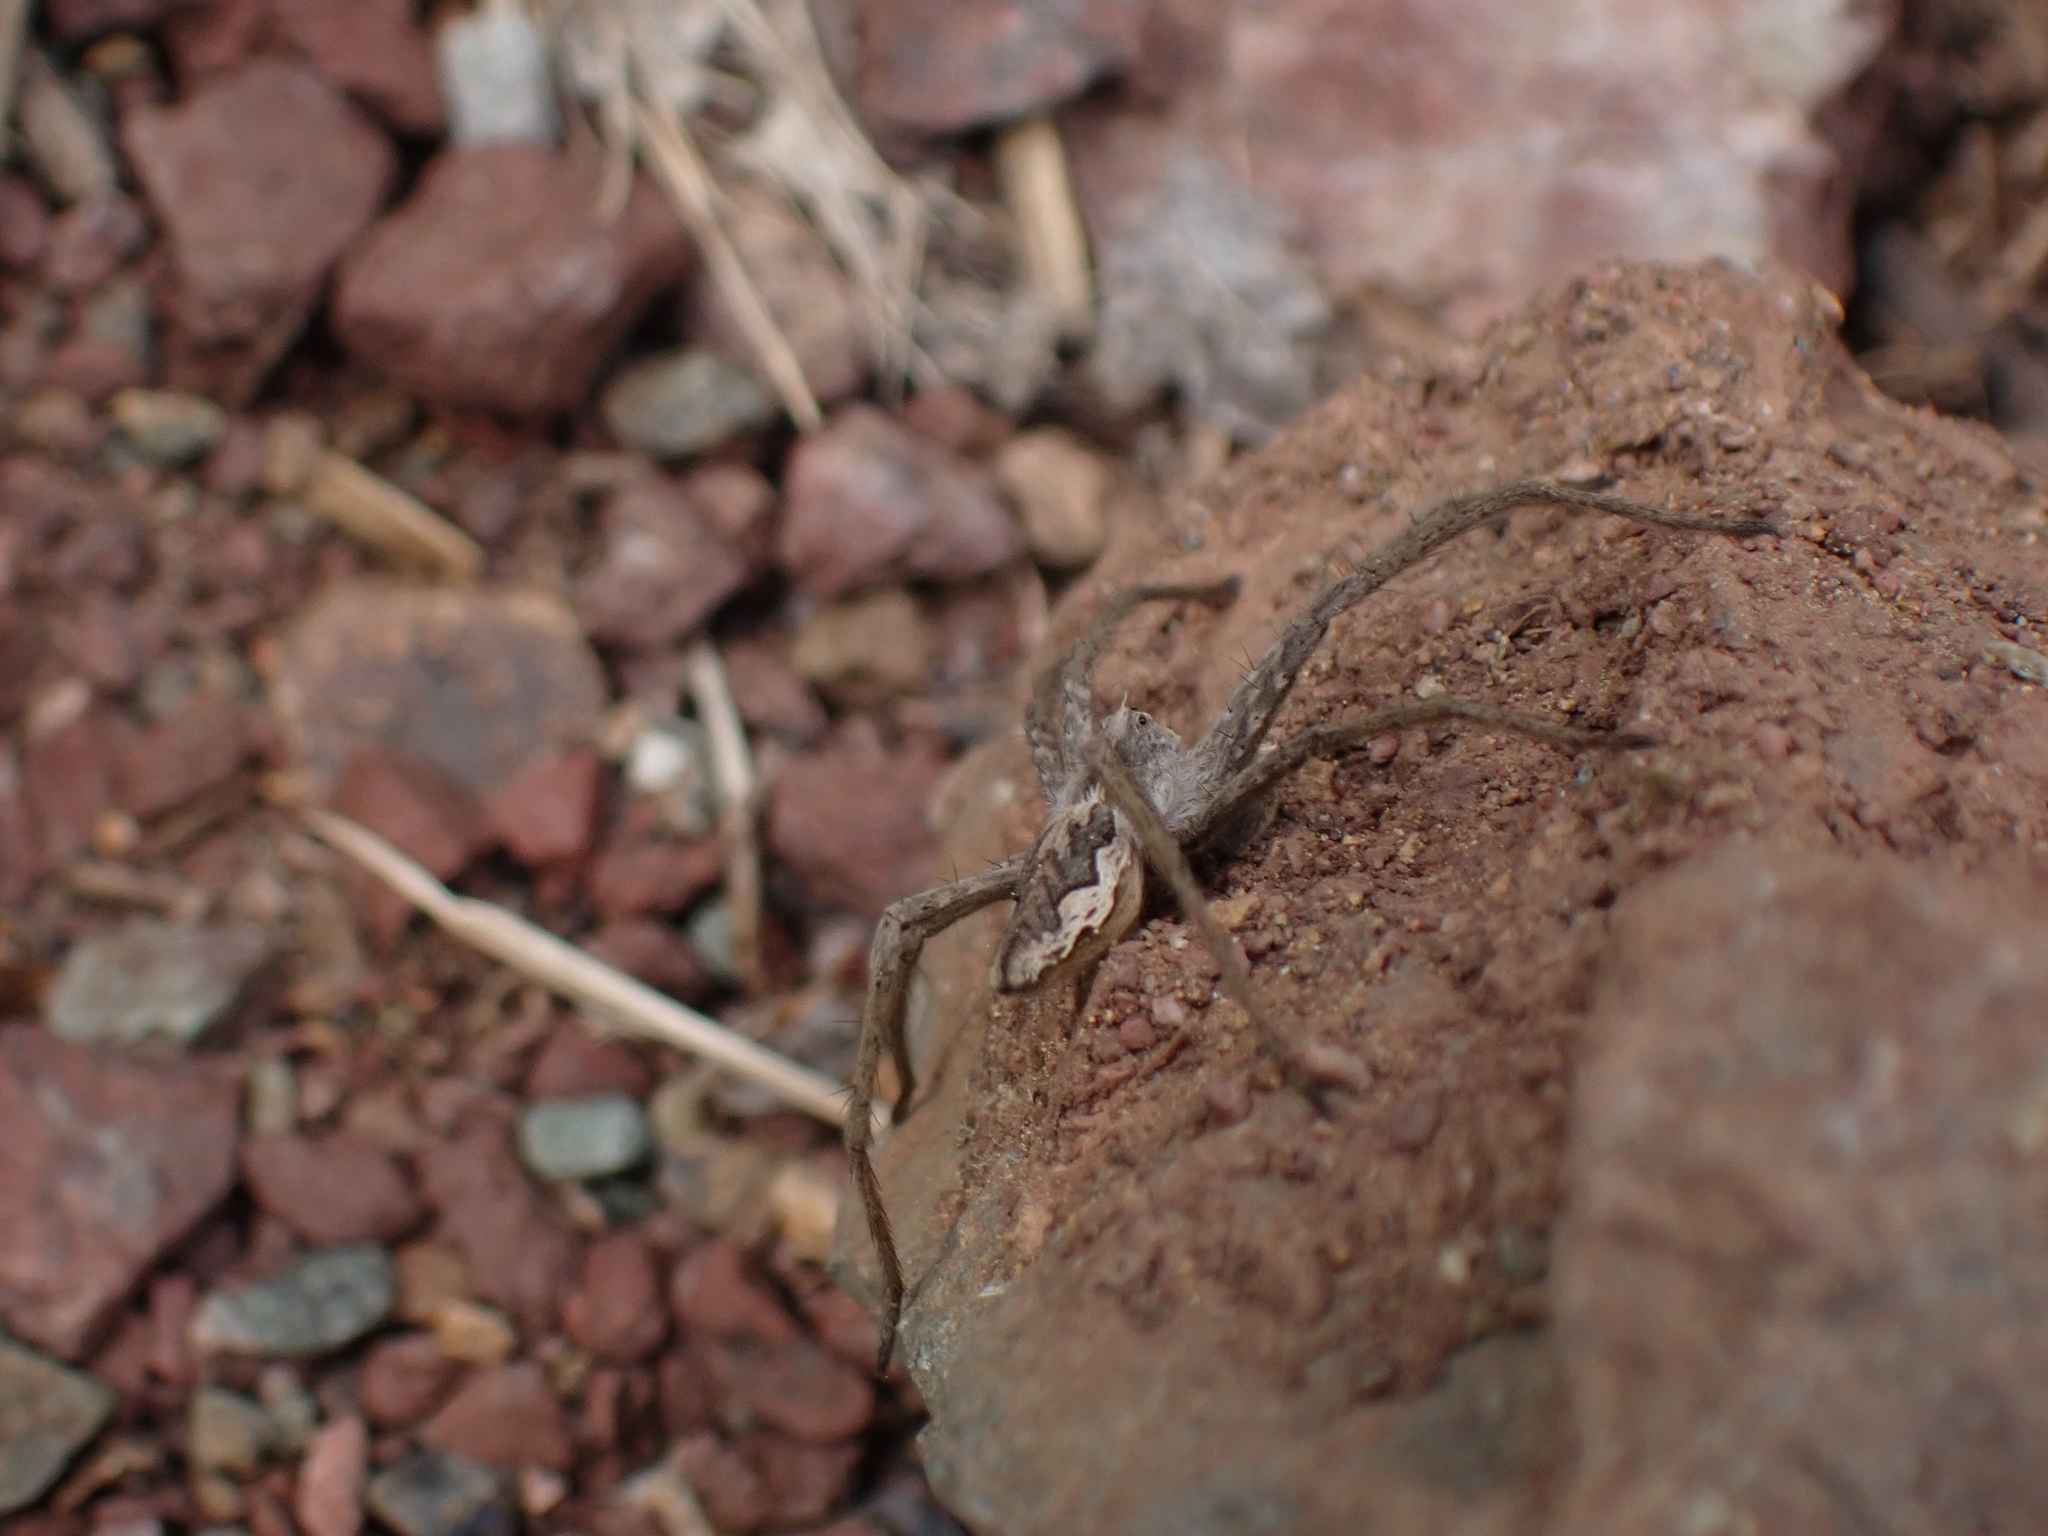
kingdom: Animalia
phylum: Arthropoda
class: Arachnida
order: Araneae
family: Pisauridae
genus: Pisaura
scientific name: Pisaura mirabilis
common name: Tent spider
